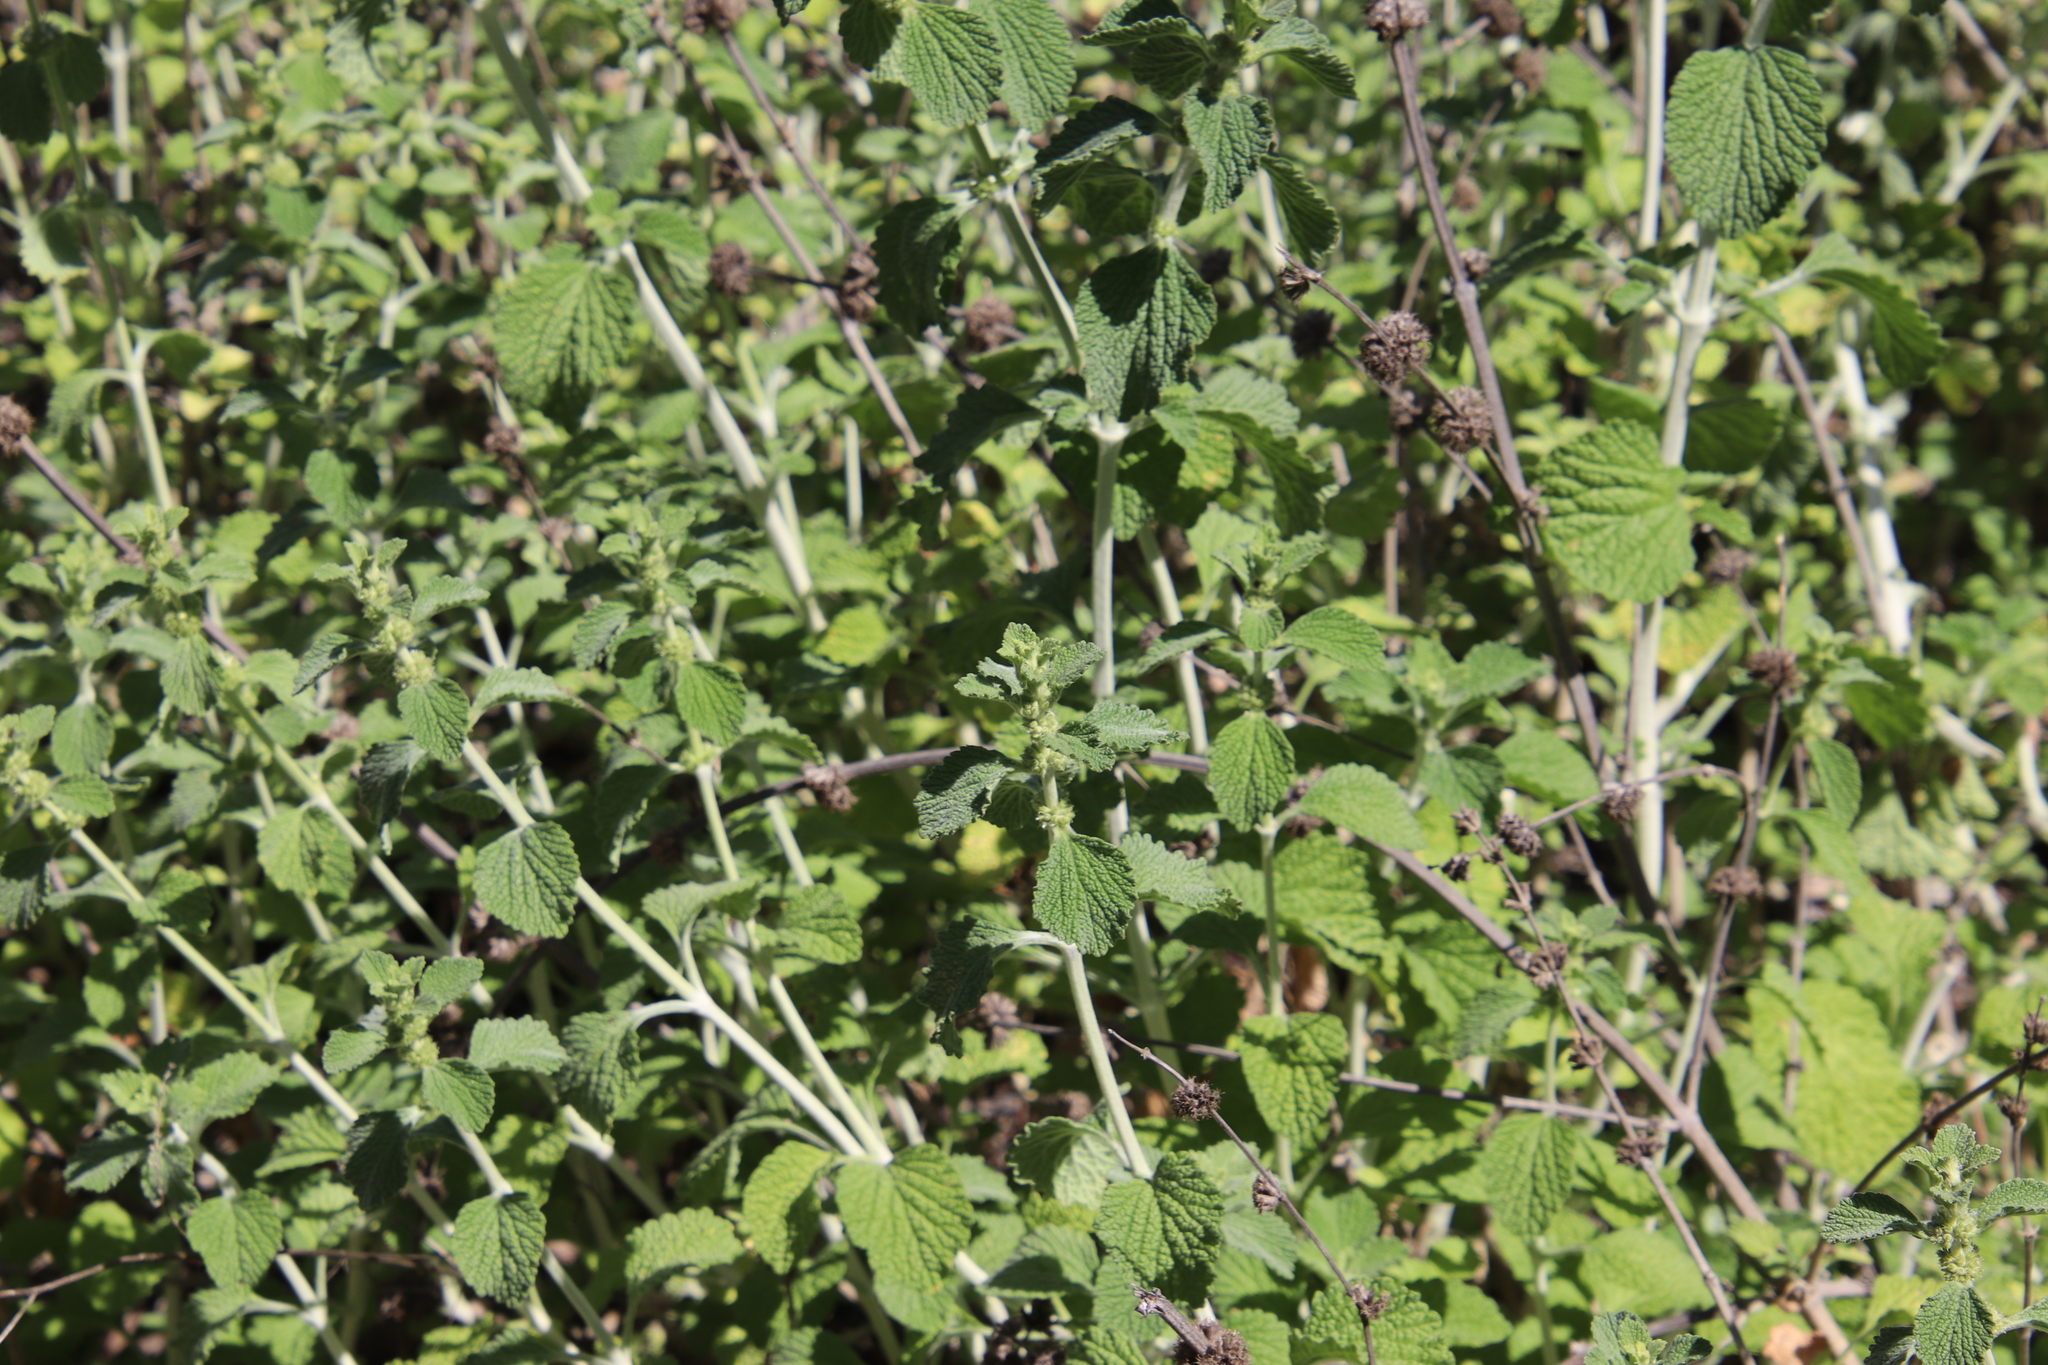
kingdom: Plantae
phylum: Tracheophyta
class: Magnoliopsida
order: Lamiales
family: Lamiaceae
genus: Marrubium
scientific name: Marrubium vulgare
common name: Horehound
